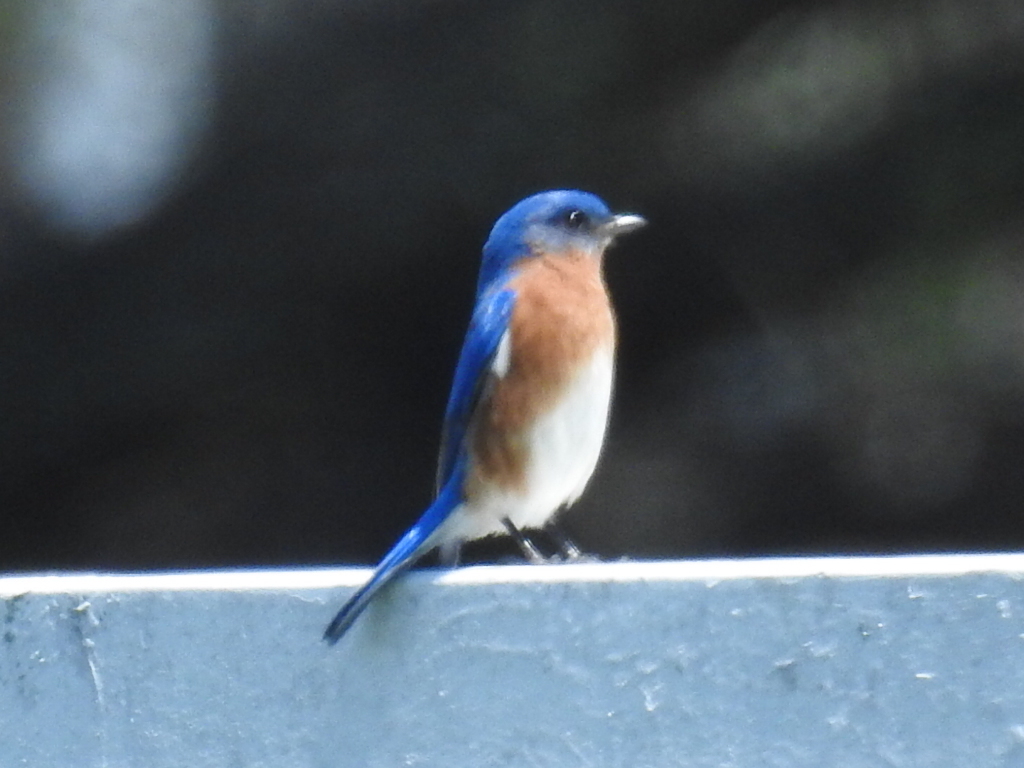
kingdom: Animalia
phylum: Chordata
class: Aves
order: Passeriformes
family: Turdidae
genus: Sialia
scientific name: Sialia sialis
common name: Eastern bluebird
